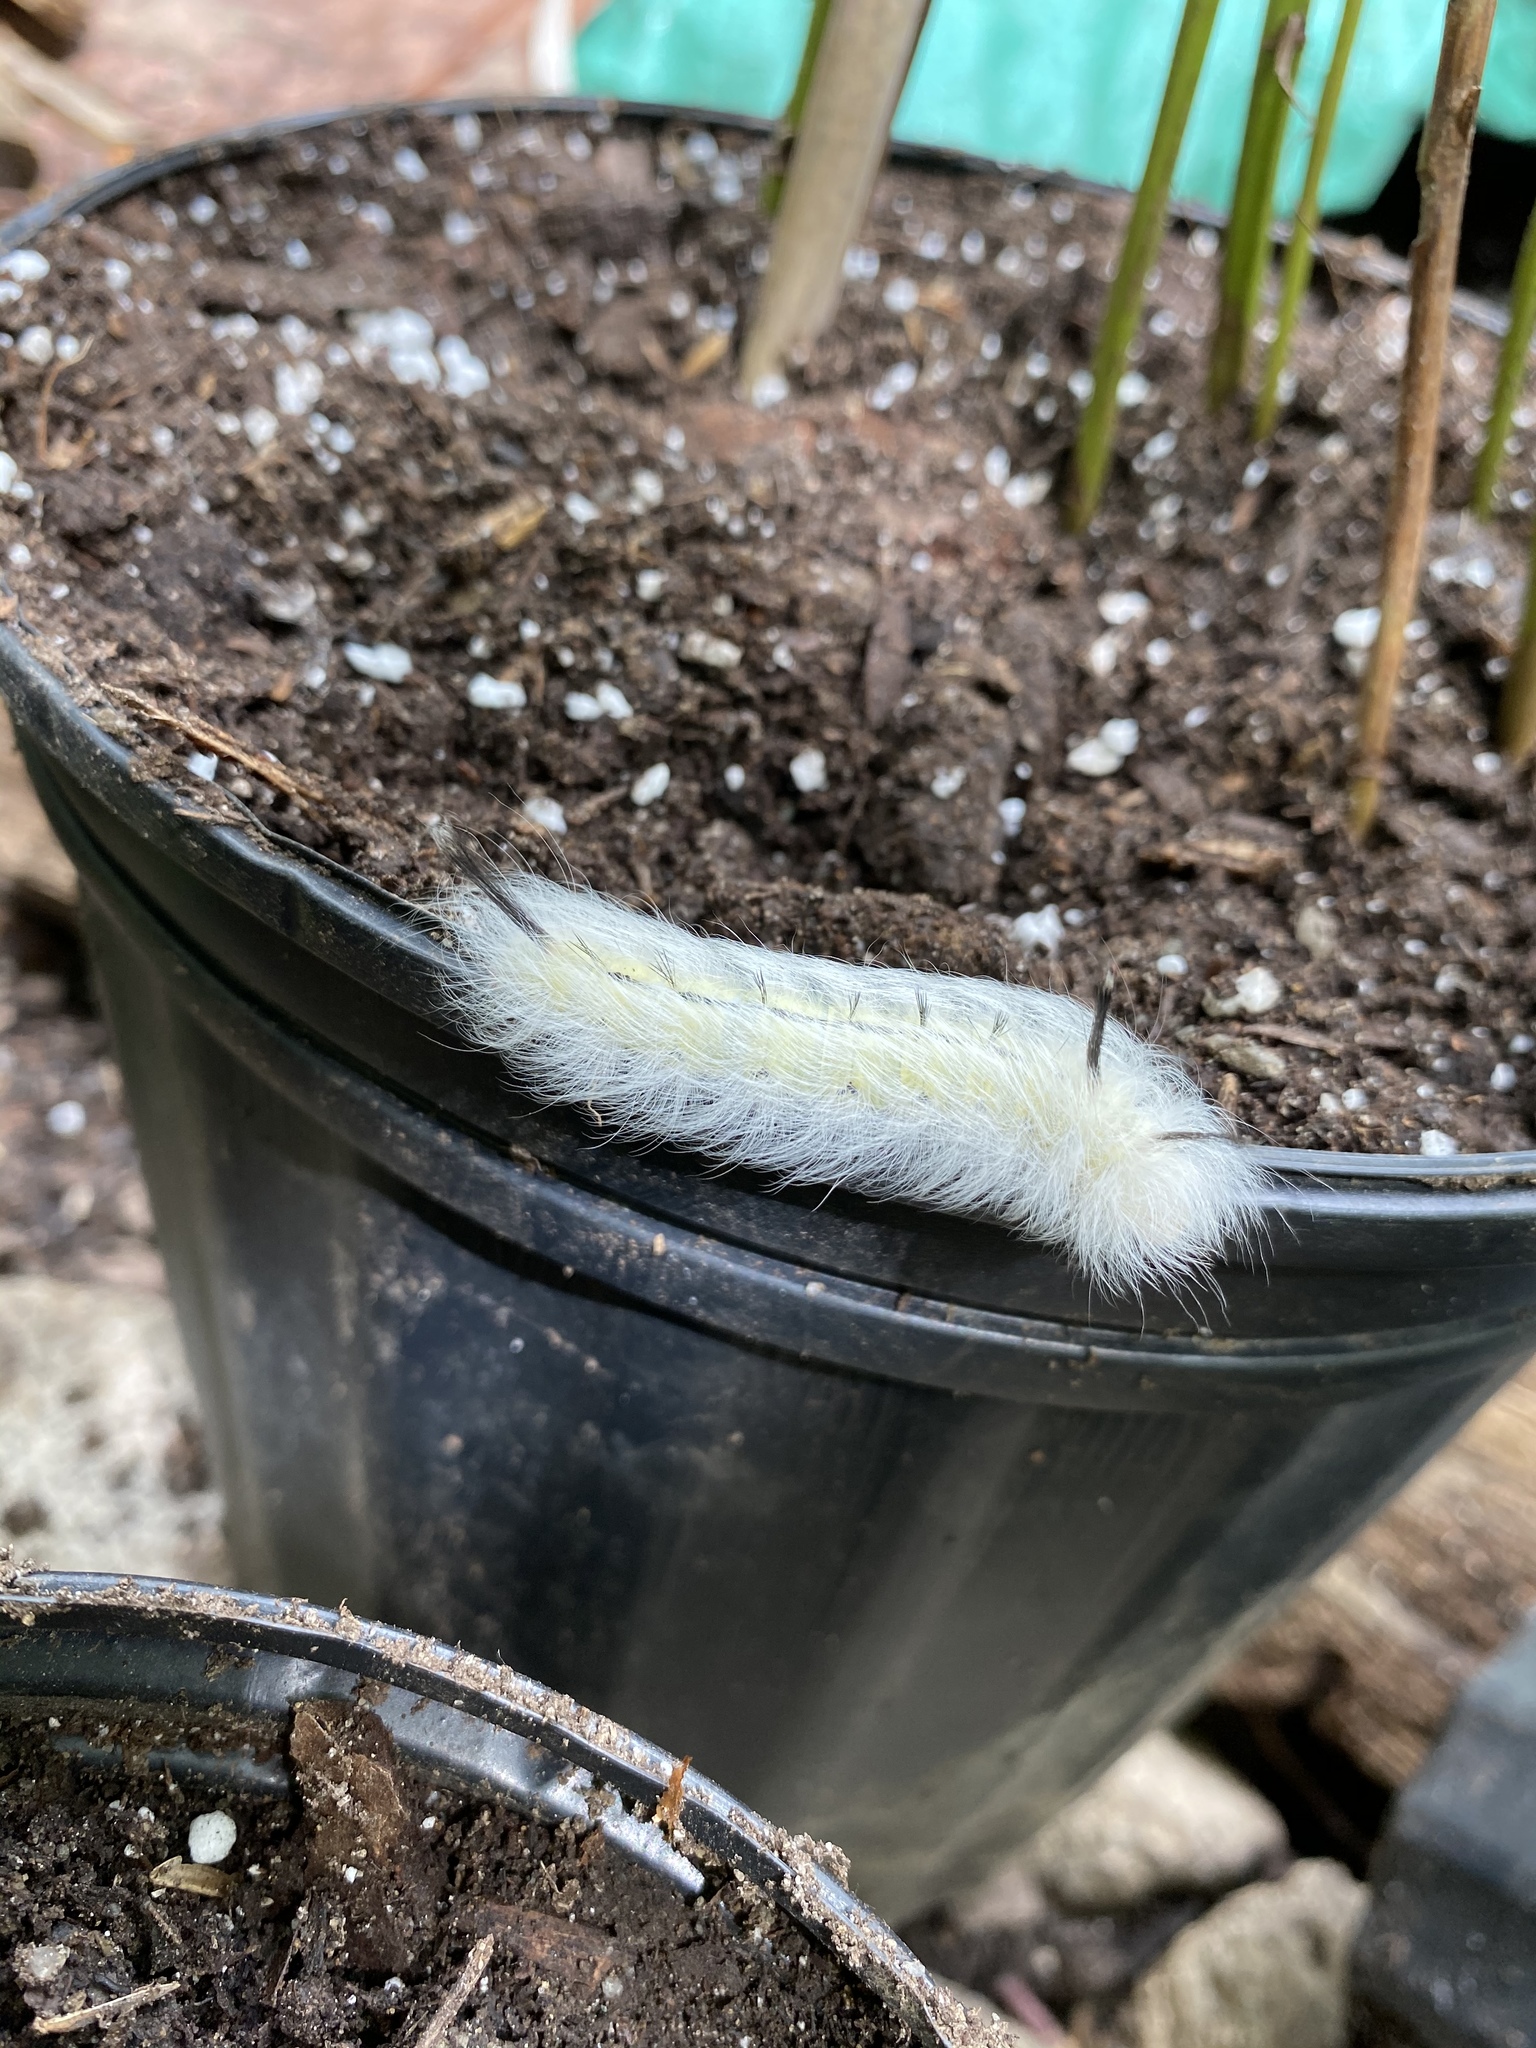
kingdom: Animalia
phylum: Arthropoda
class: Insecta
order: Lepidoptera
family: Apatelodidae
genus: Hygrochroa
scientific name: Hygrochroa Apatelodes torrefacta
